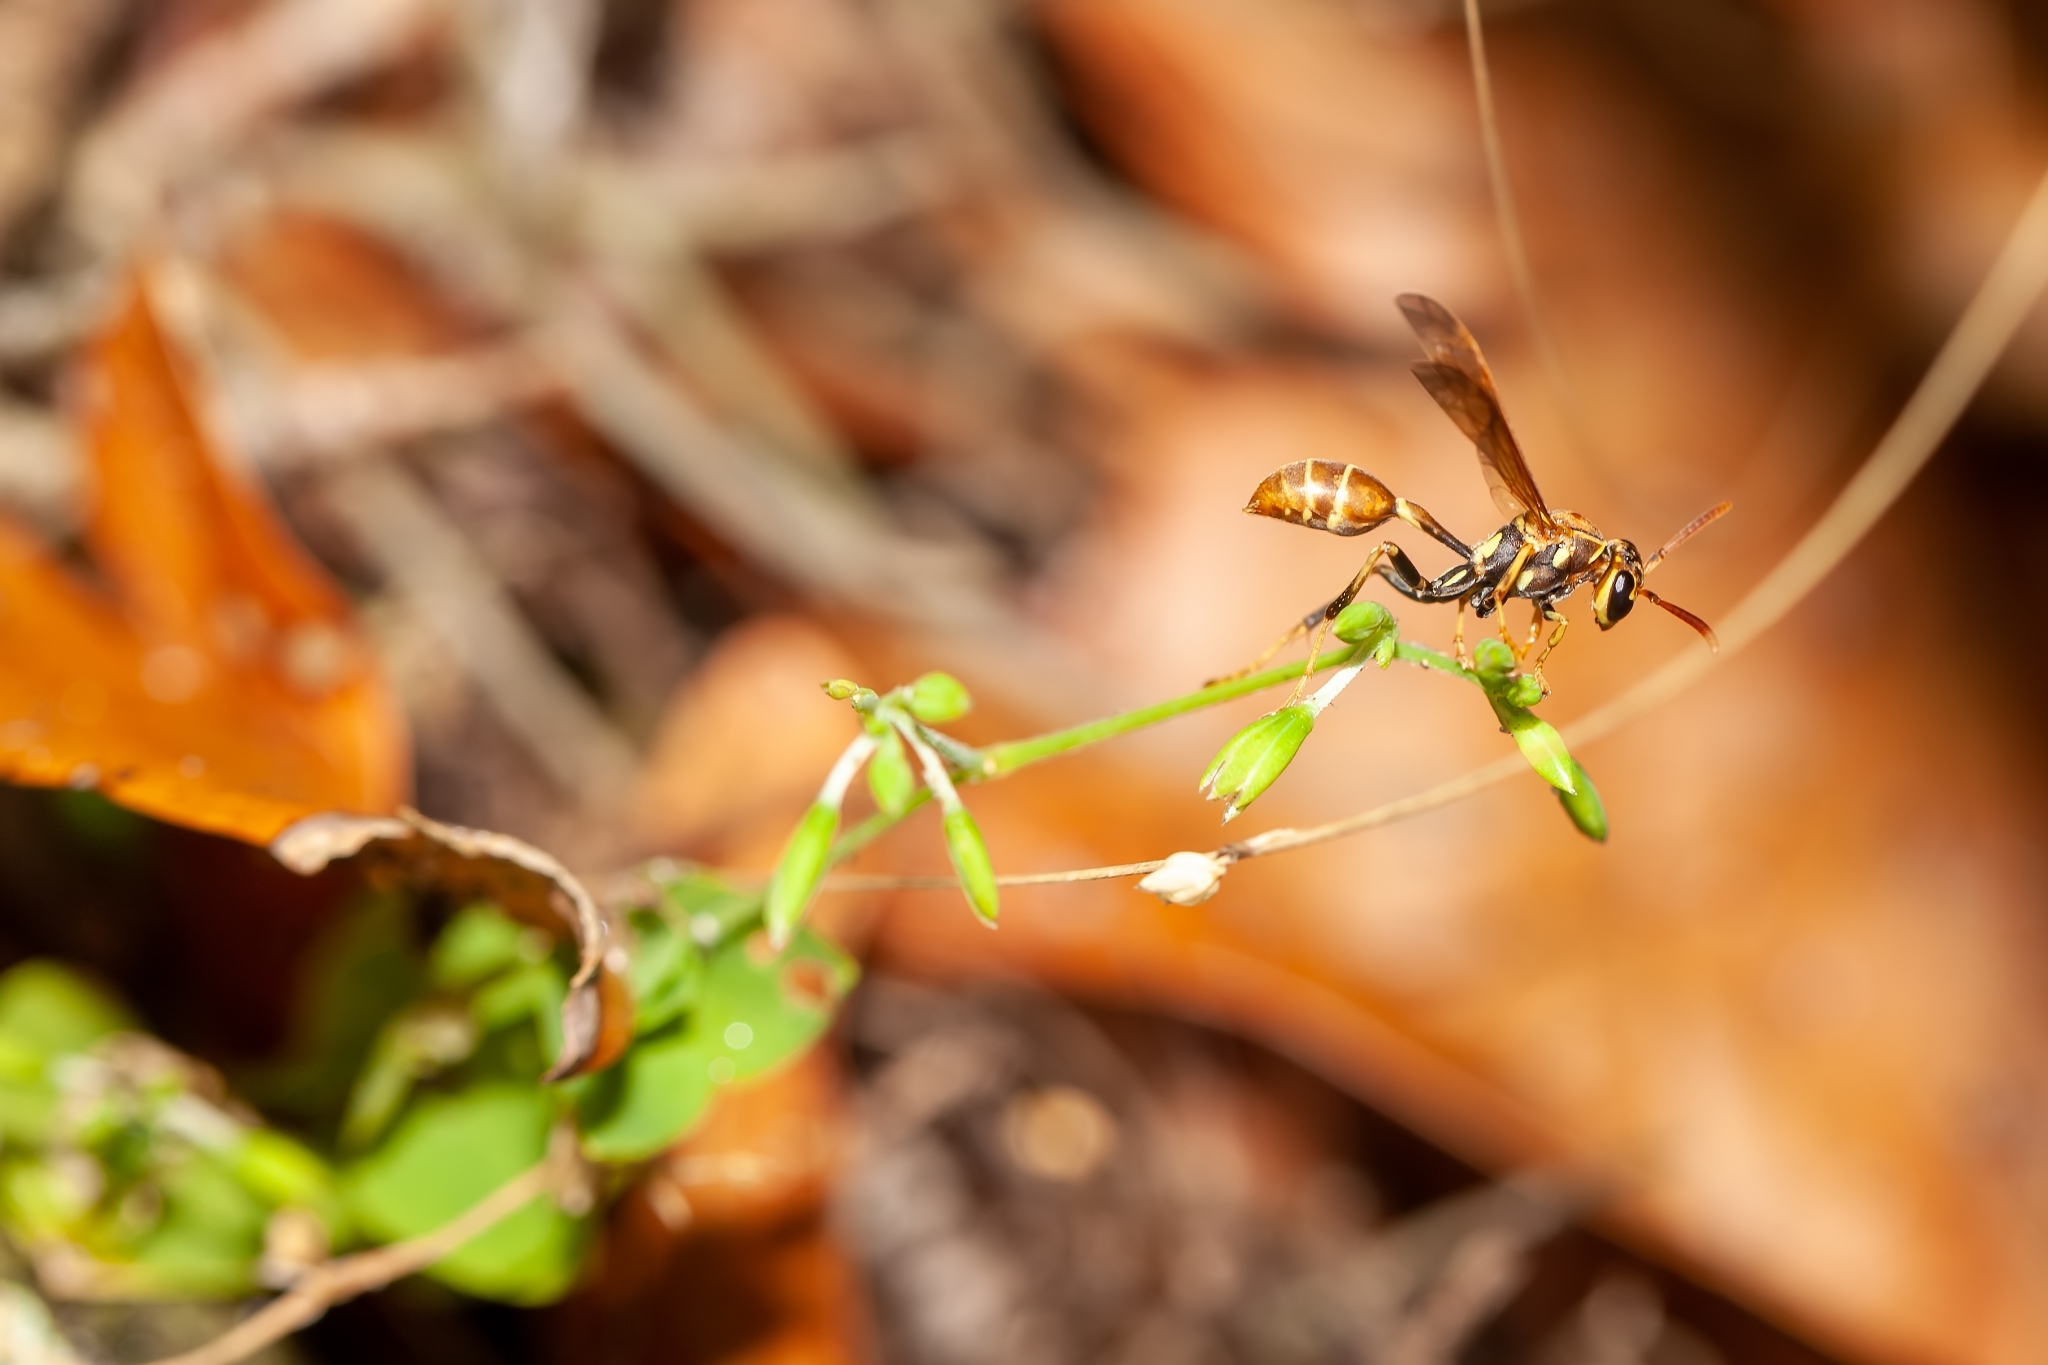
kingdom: Animalia
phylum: Arthropoda
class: Insecta
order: Hymenoptera
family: Vespidae
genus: Mischocyttarus
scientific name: Mischocyttarus mexicanus
